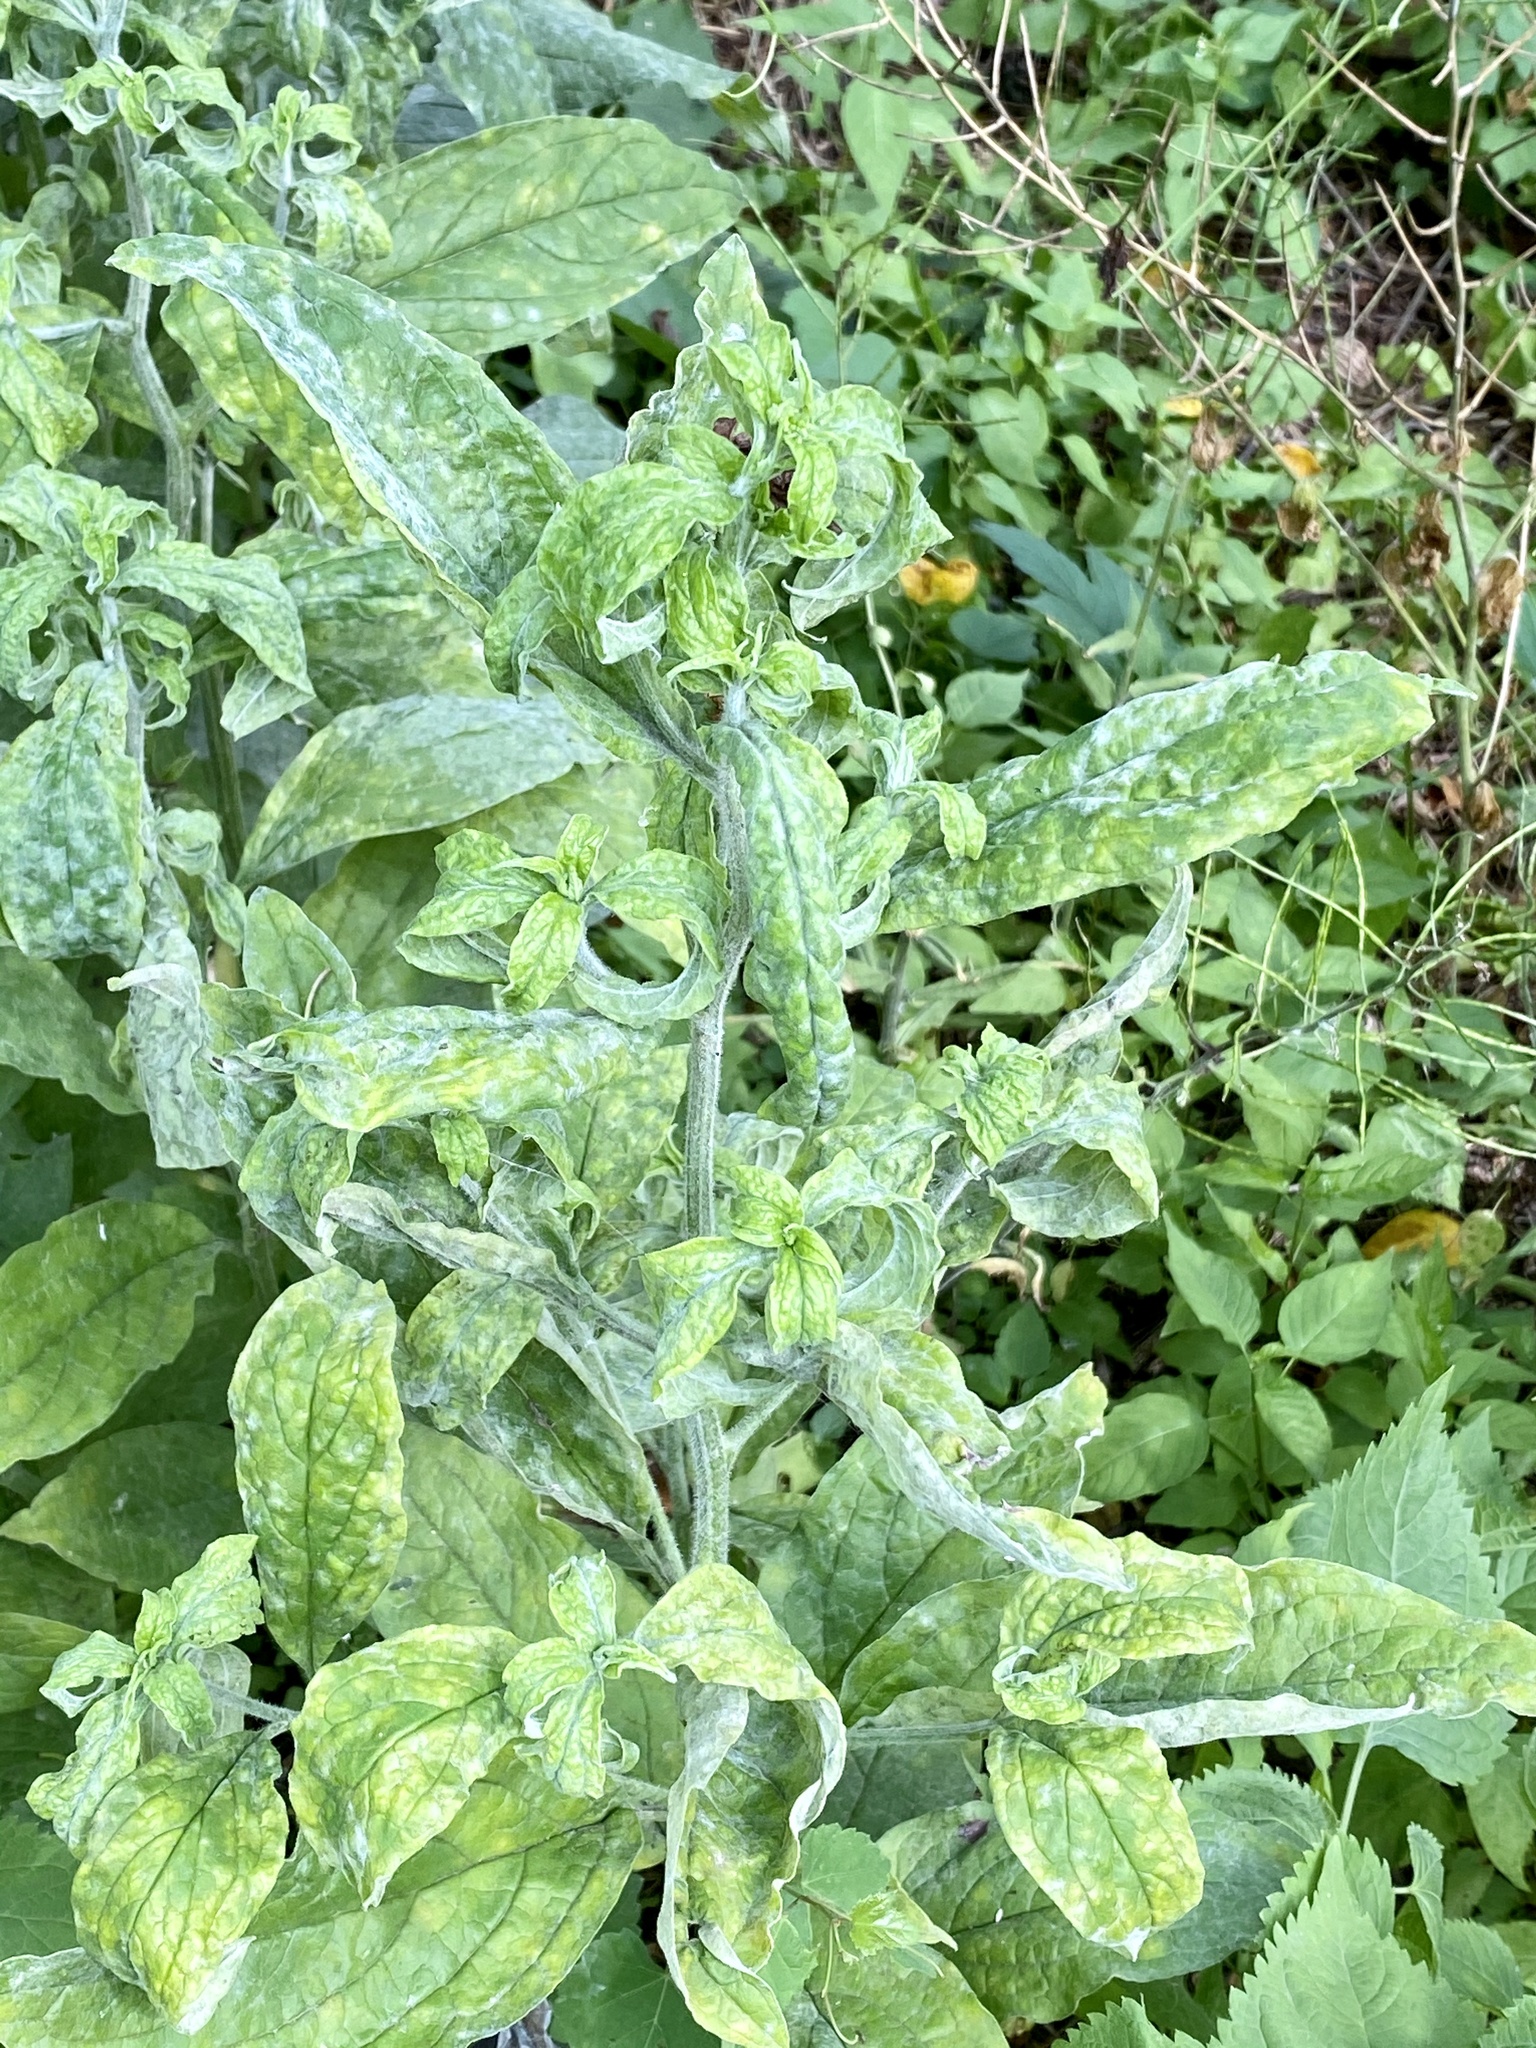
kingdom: Plantae
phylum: Tracheophyta
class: Magnoliopsida
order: Boraginales
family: Boraginaceae
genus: Hackelia
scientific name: Hackelia virginiana
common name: Beggar's-lice
